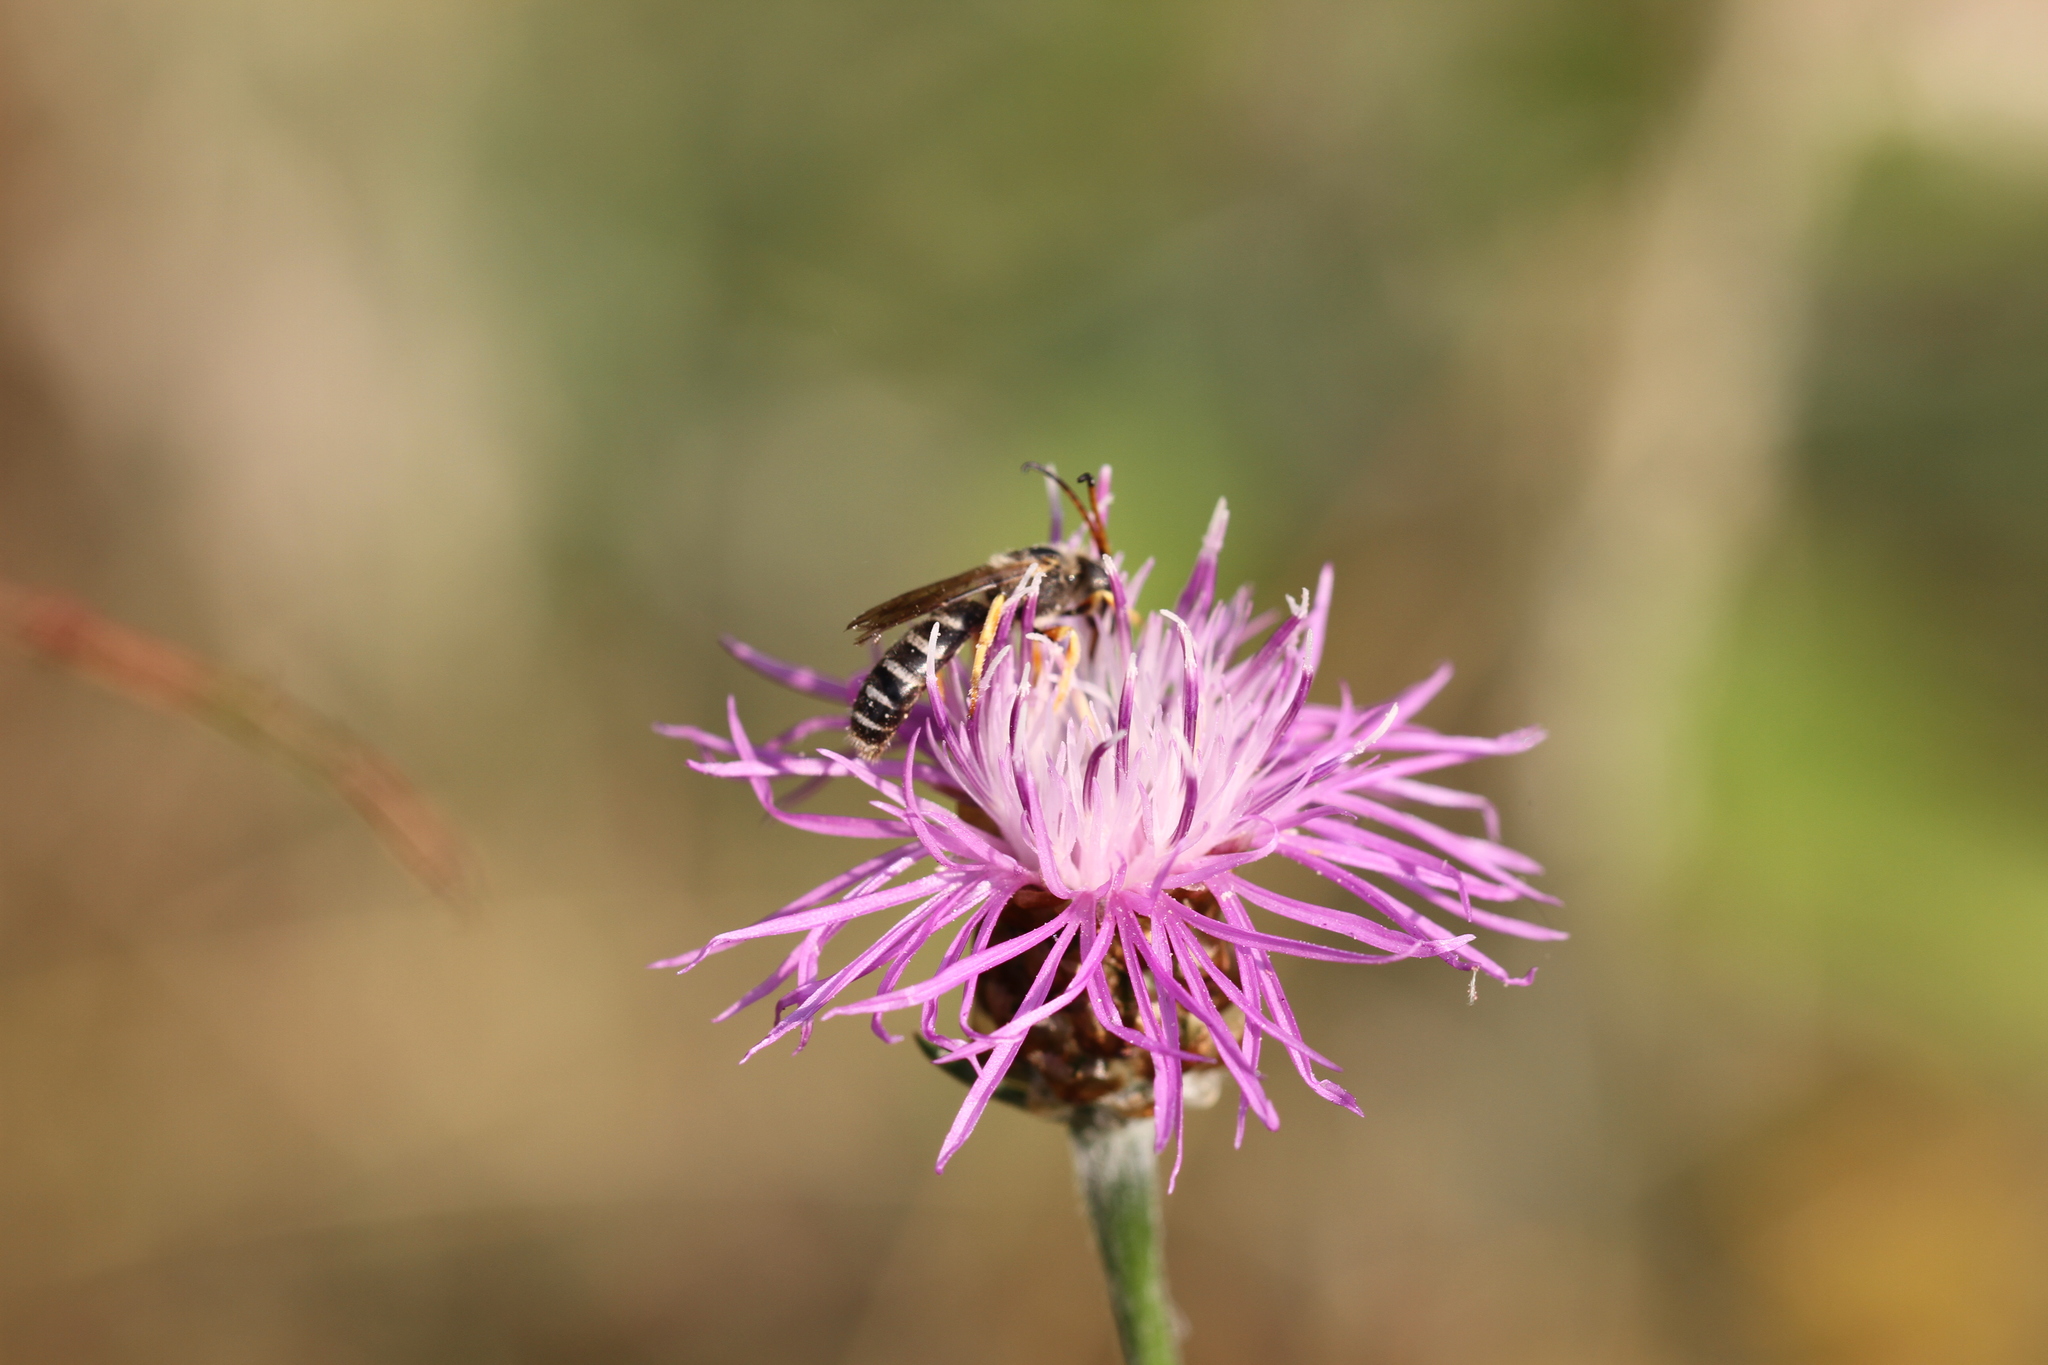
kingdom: Animalia
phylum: Arthropoda
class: Insecta
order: Hymenoptera
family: Halictidae
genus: Halictus
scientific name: Halictus sexcinctus
